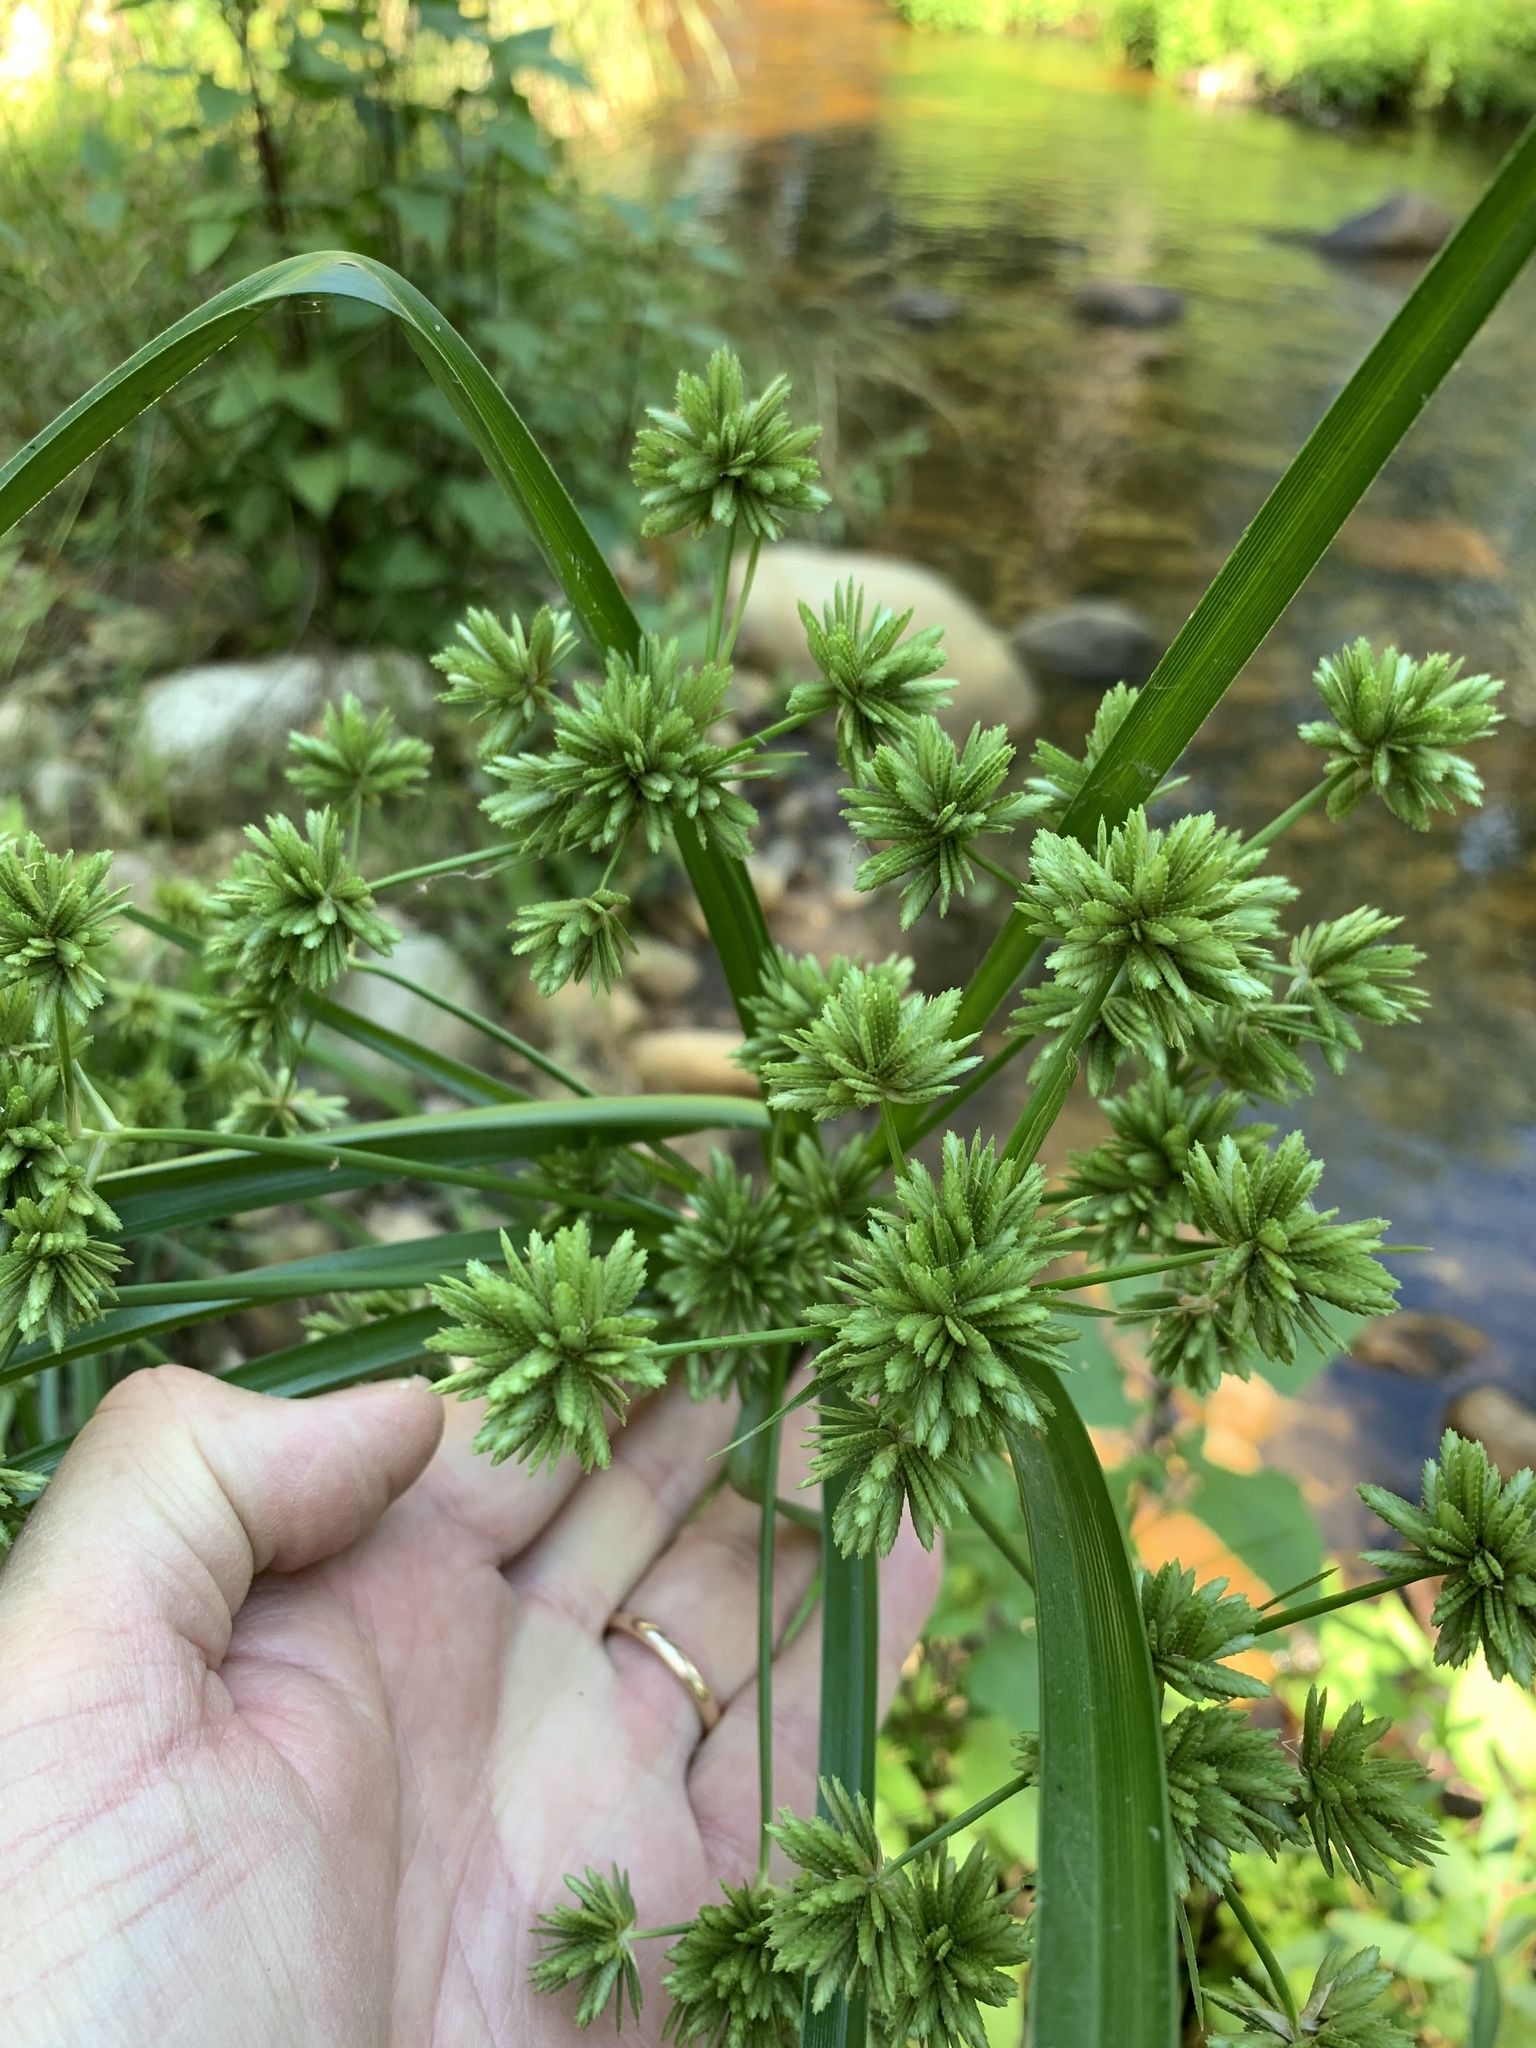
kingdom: Plantae
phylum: Tracheophyta
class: Liliopsida
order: Poales
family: Cyperaceae
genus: Cyperus
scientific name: Cyperus eragrostis
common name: Tall flatsedge
